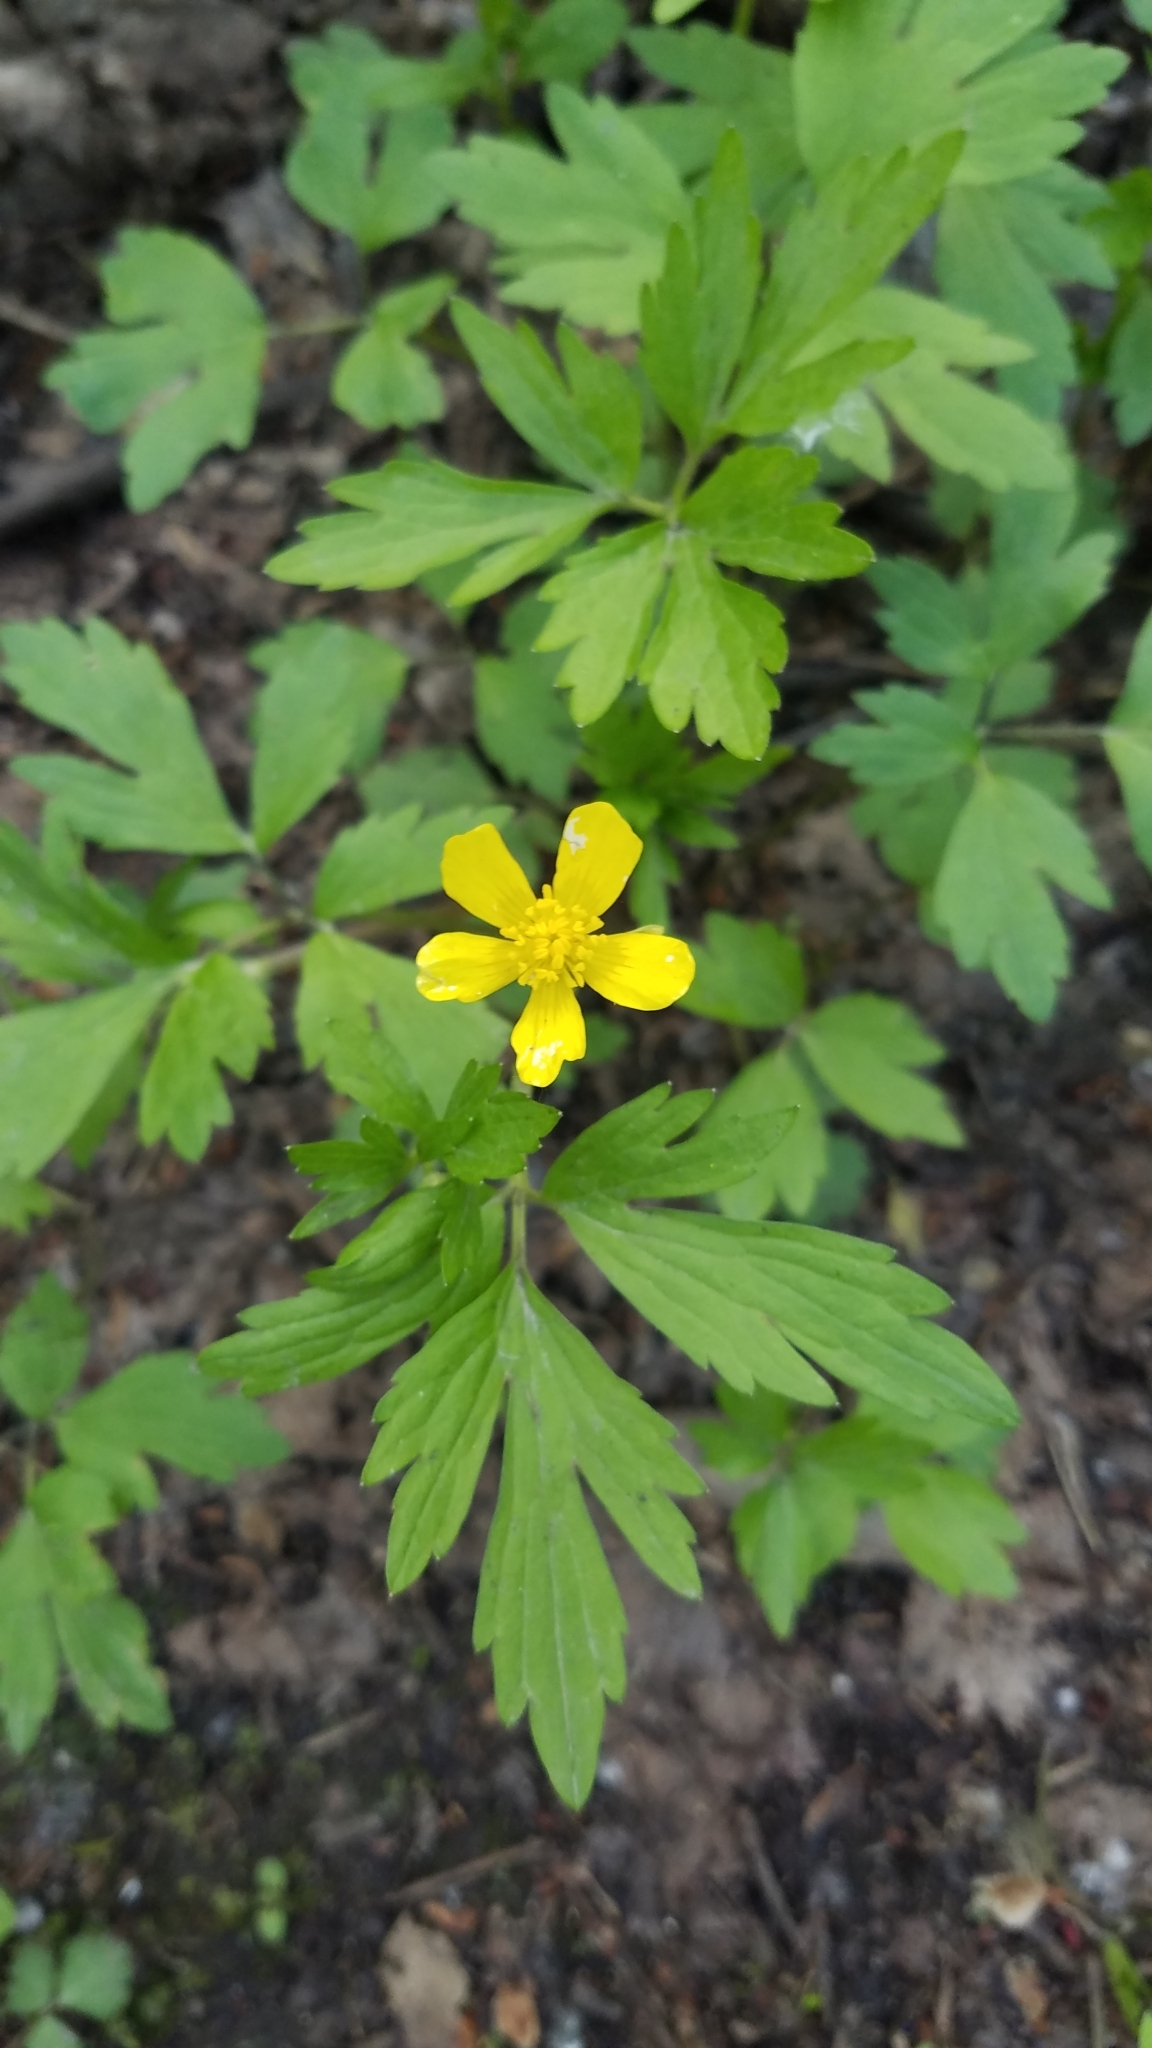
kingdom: Plantae
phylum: Tracheophyta
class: Magnoliopsida
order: Ranunculales
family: Ranunculaceae
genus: Ranunculus
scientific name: Ranunculus hispidus
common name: Bristly buttercup
